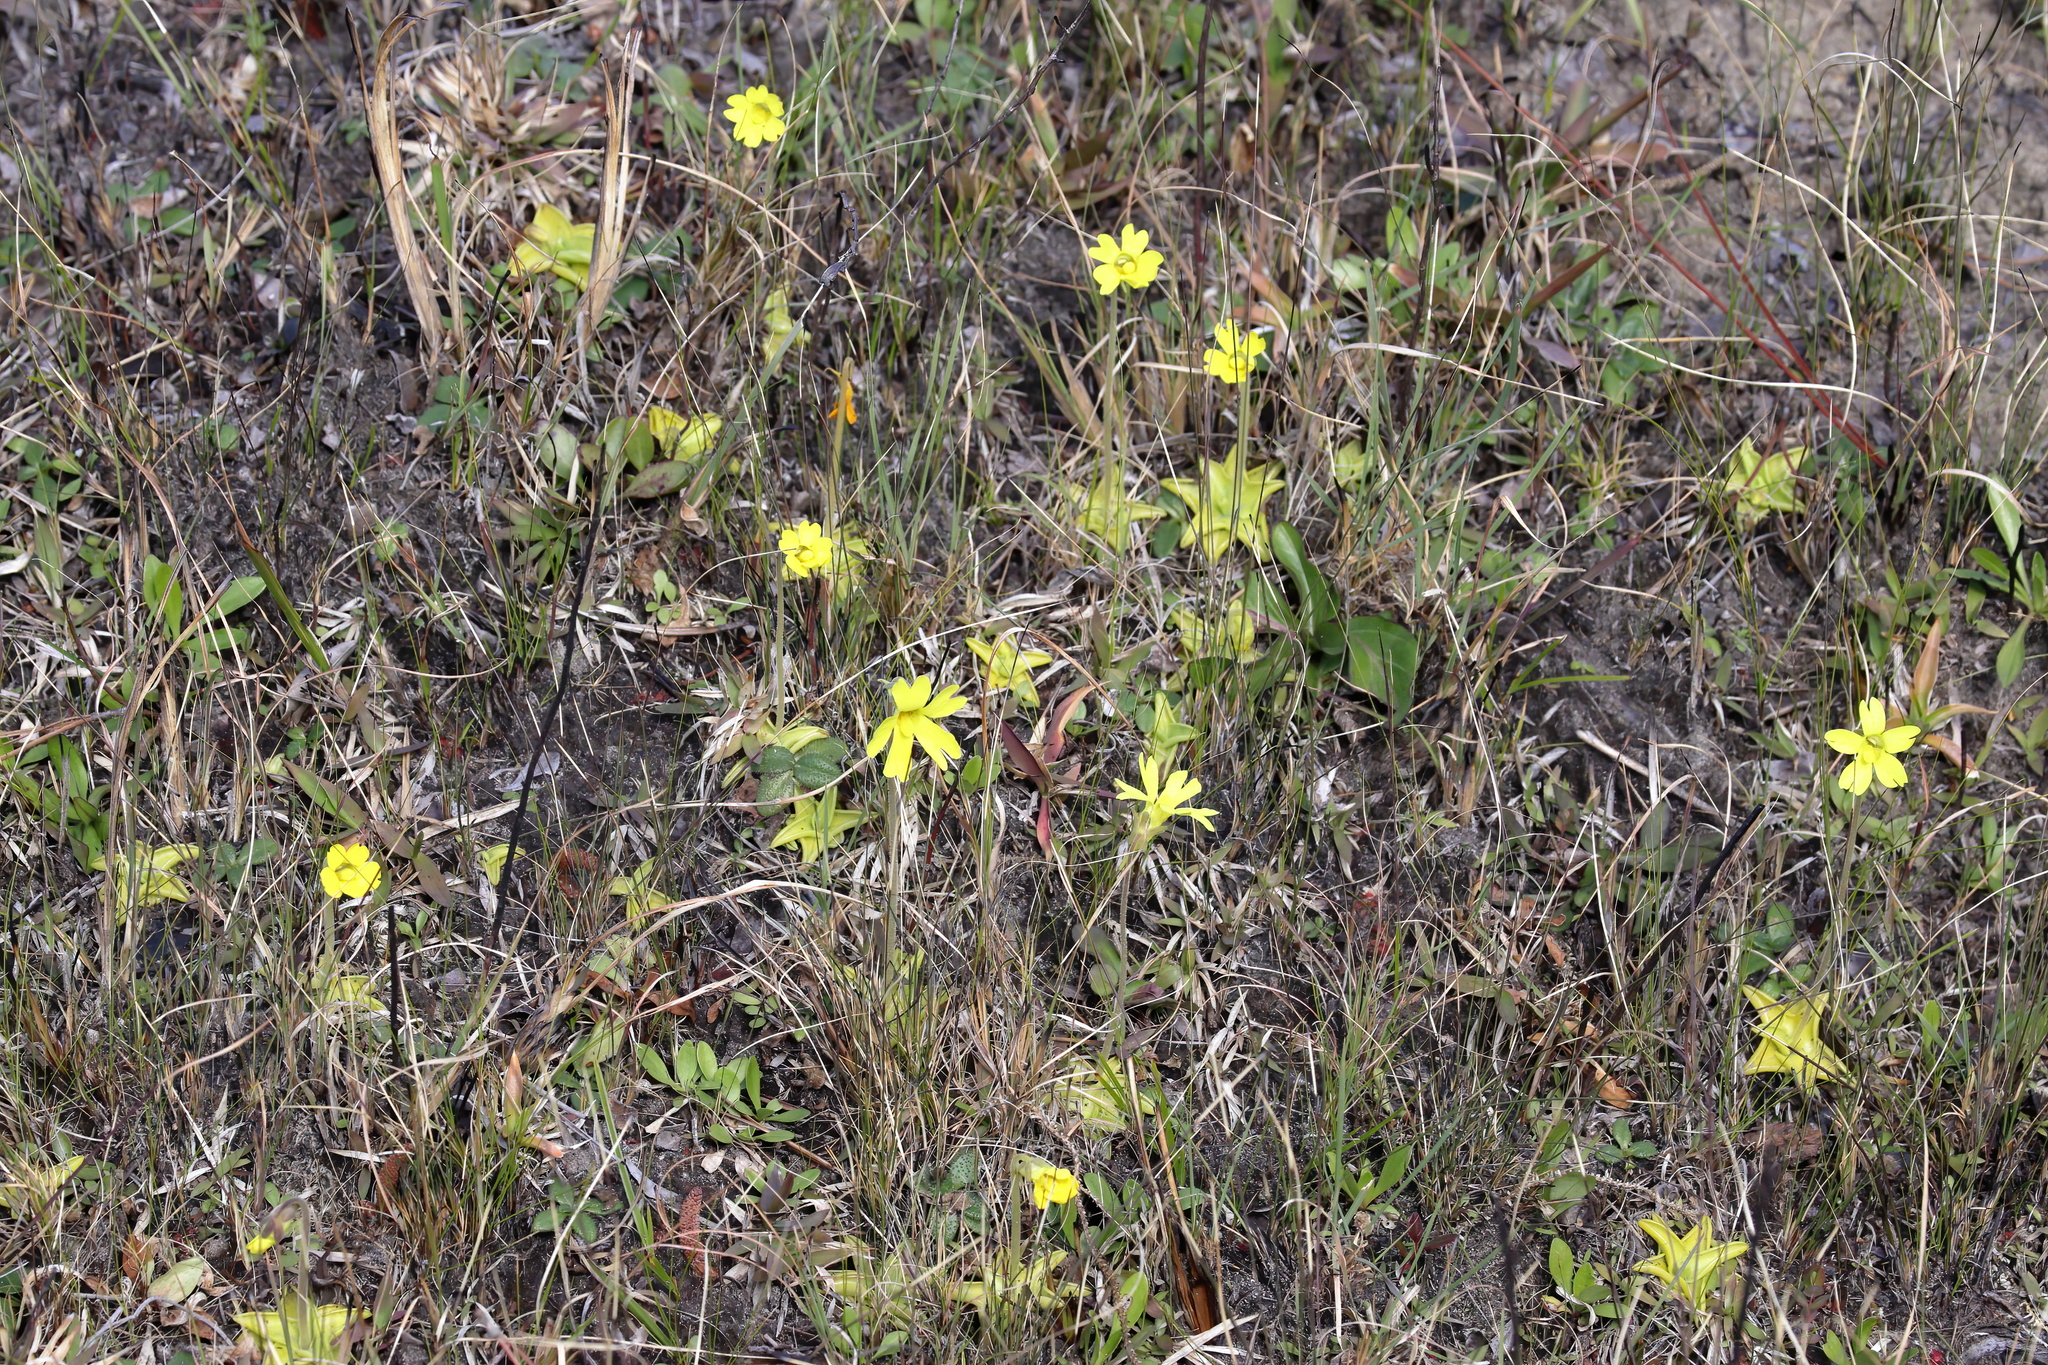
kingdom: Plantae
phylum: Tracheophyta
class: Magnoliopsida
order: Lamiales
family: Lentibulariaceae
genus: Pinguicula
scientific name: Pinguicula lutea
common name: Yellow butterwort
